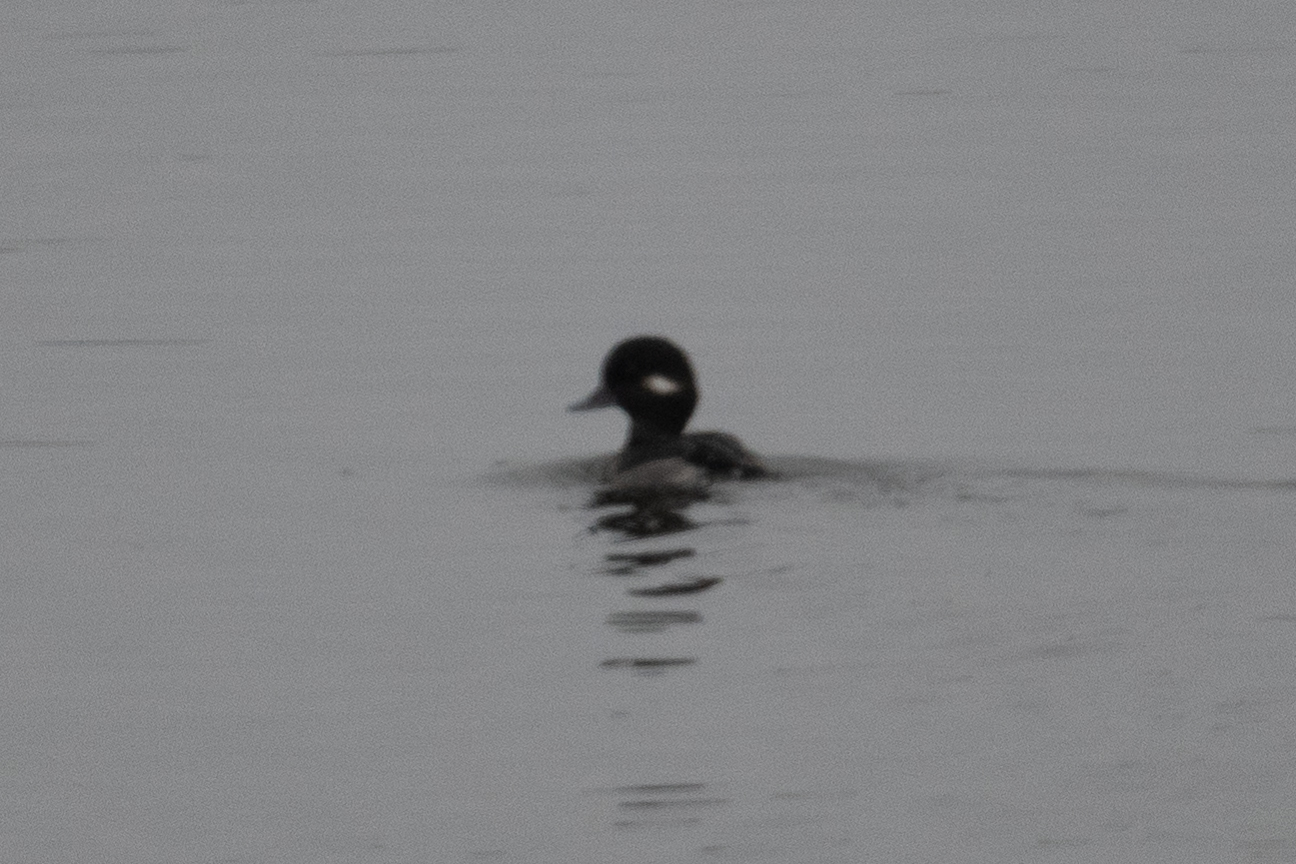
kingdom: Animalia
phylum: Chordata
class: Aves
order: Anseriformes
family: Anatidae
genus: Bucephala
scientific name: Bucephala albeola
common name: Bufflehead
